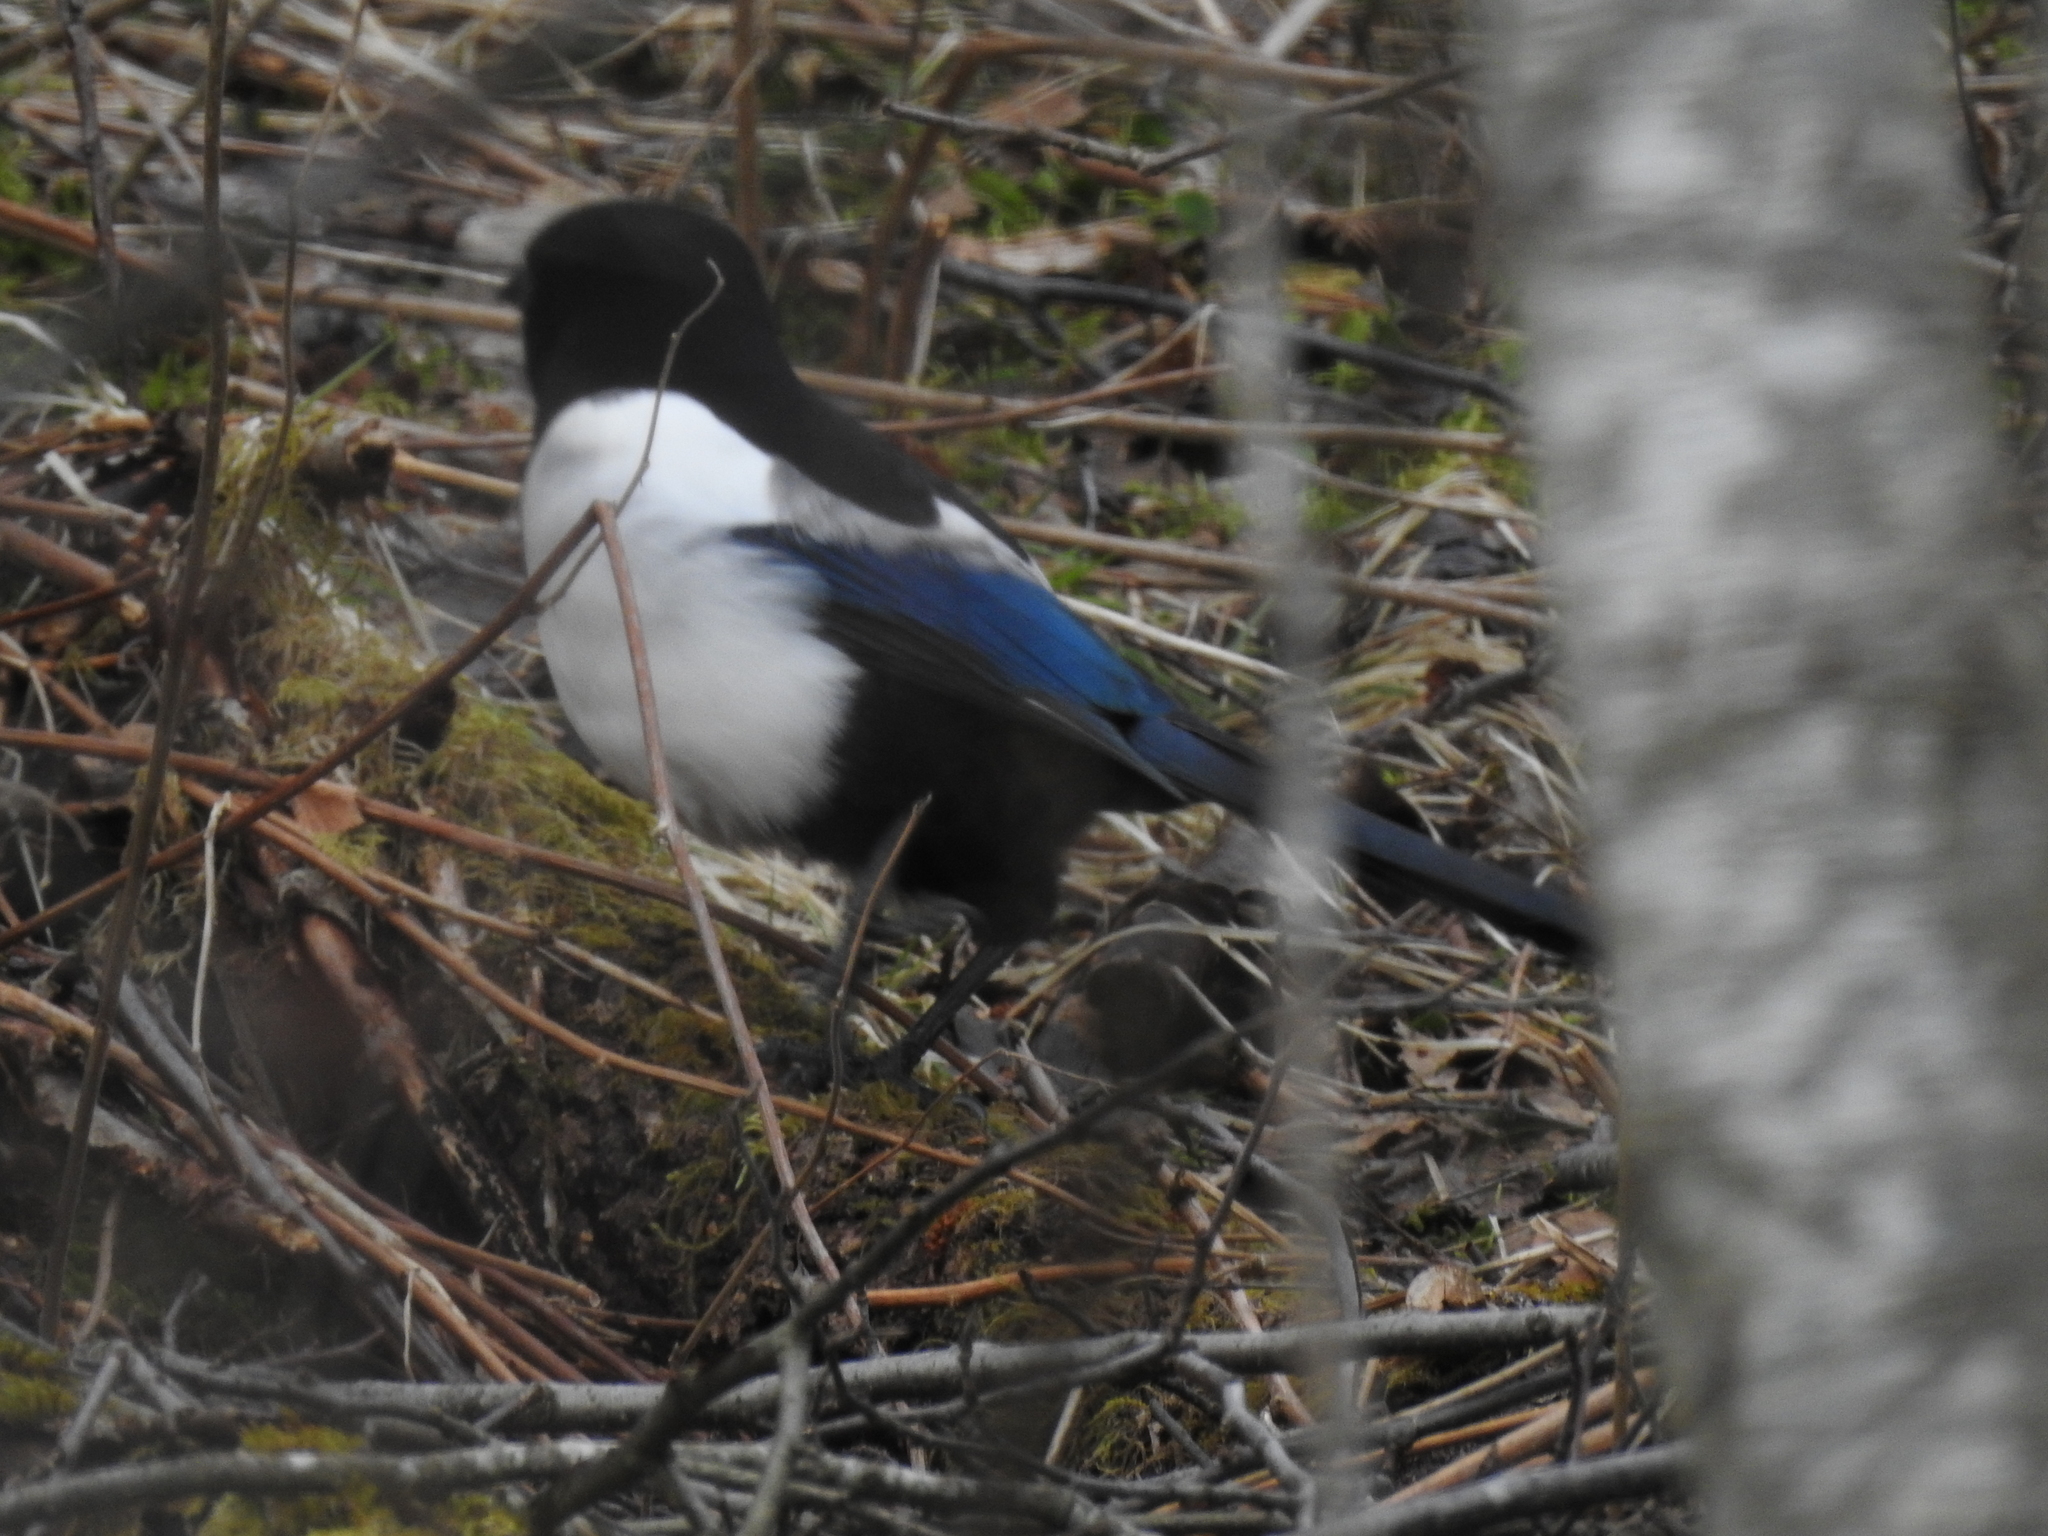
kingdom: Animalia
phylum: Chordata
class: Aves
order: Passeriformes
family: Corvidae
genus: Pica
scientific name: Pica pica
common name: Eurasian magpie
